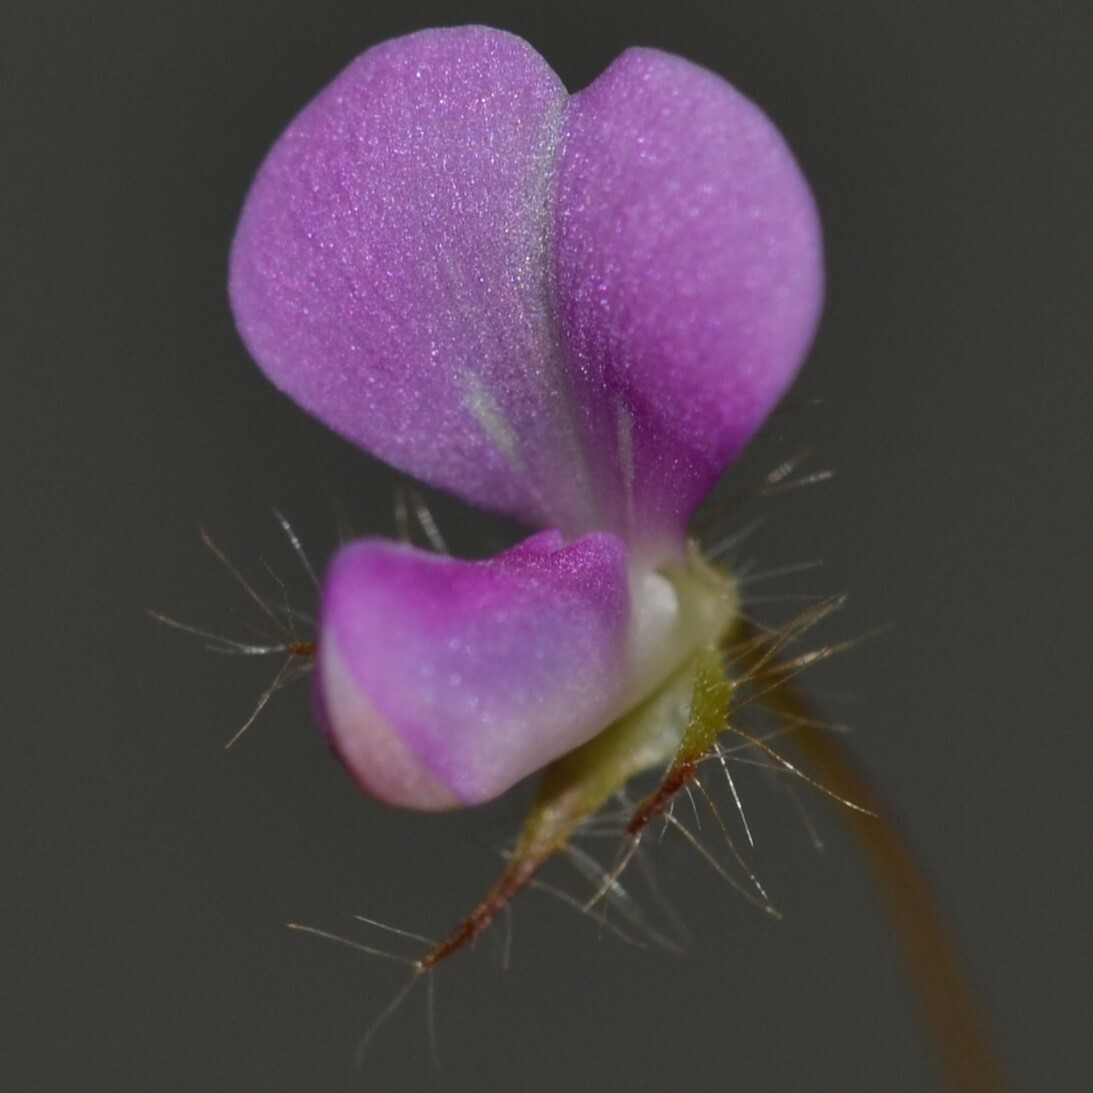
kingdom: Plantae
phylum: Tracheophyta
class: Magnoliopsida
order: Fabales
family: Fabaceae
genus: Grona
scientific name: Grona triflora
